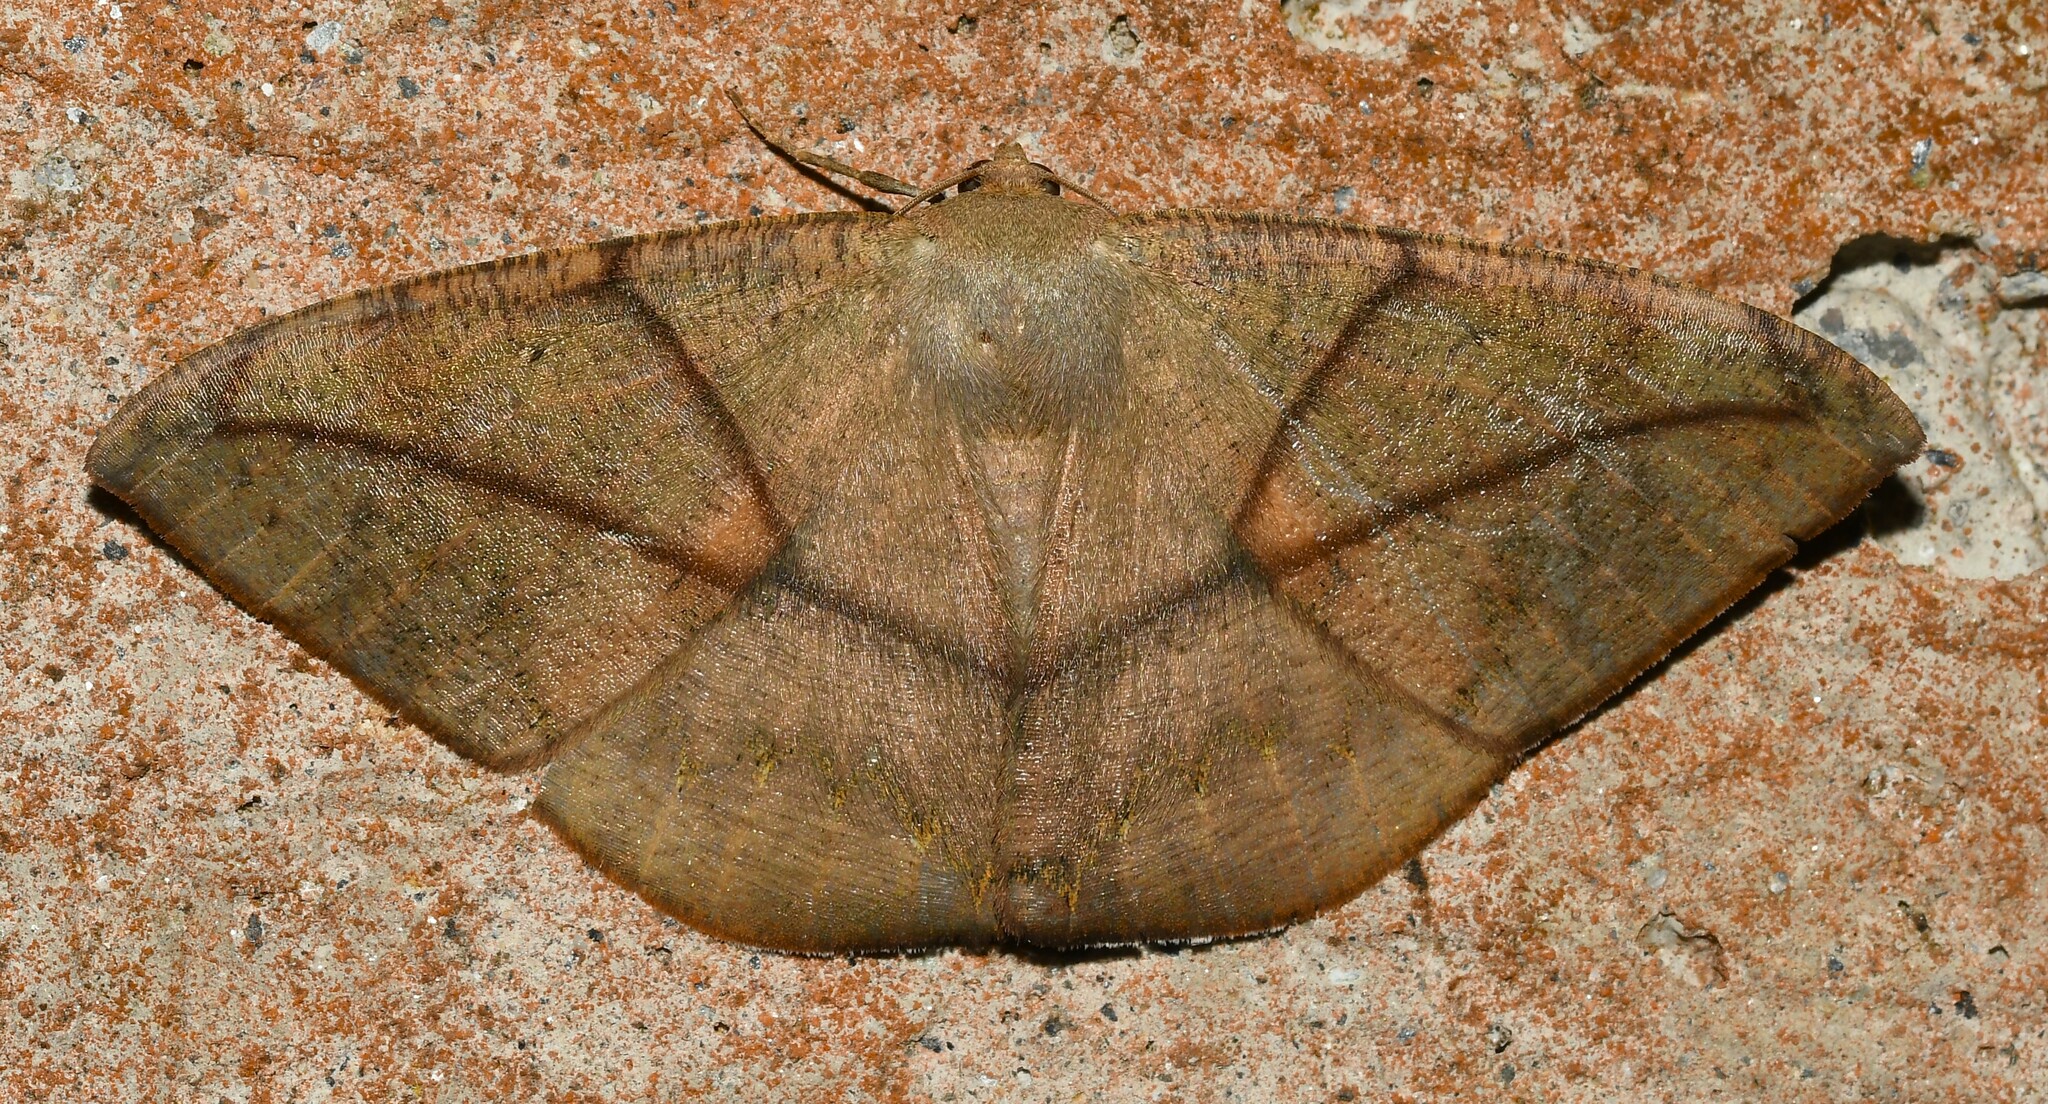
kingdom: Animalia
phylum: Arthropoda
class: Insecta
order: Lepidoptera
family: Geometridae
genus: Oxydia
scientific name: Oxydia trychiata
